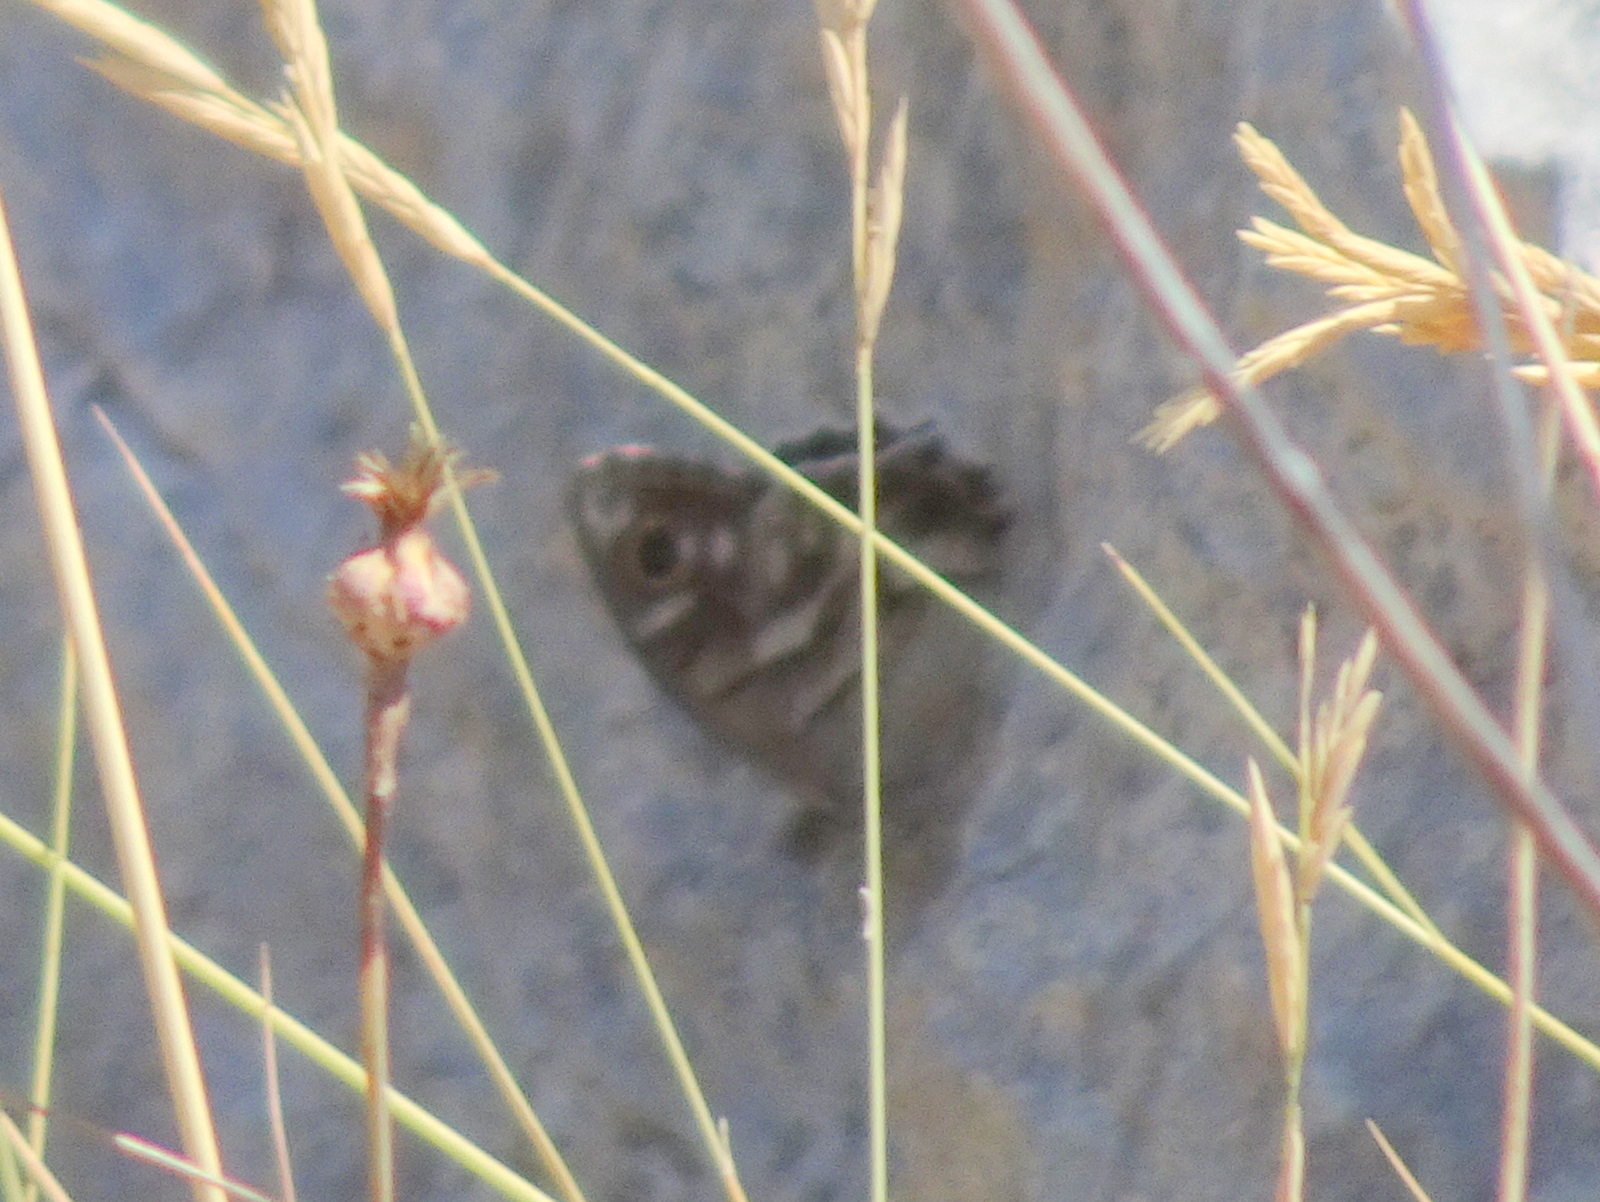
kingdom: Animalia
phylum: Arthropoda
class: Insecta
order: Lepidoptera
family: Nymphalidae
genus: Hipparchia
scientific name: Hipparchia fidia
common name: Striped grayling
